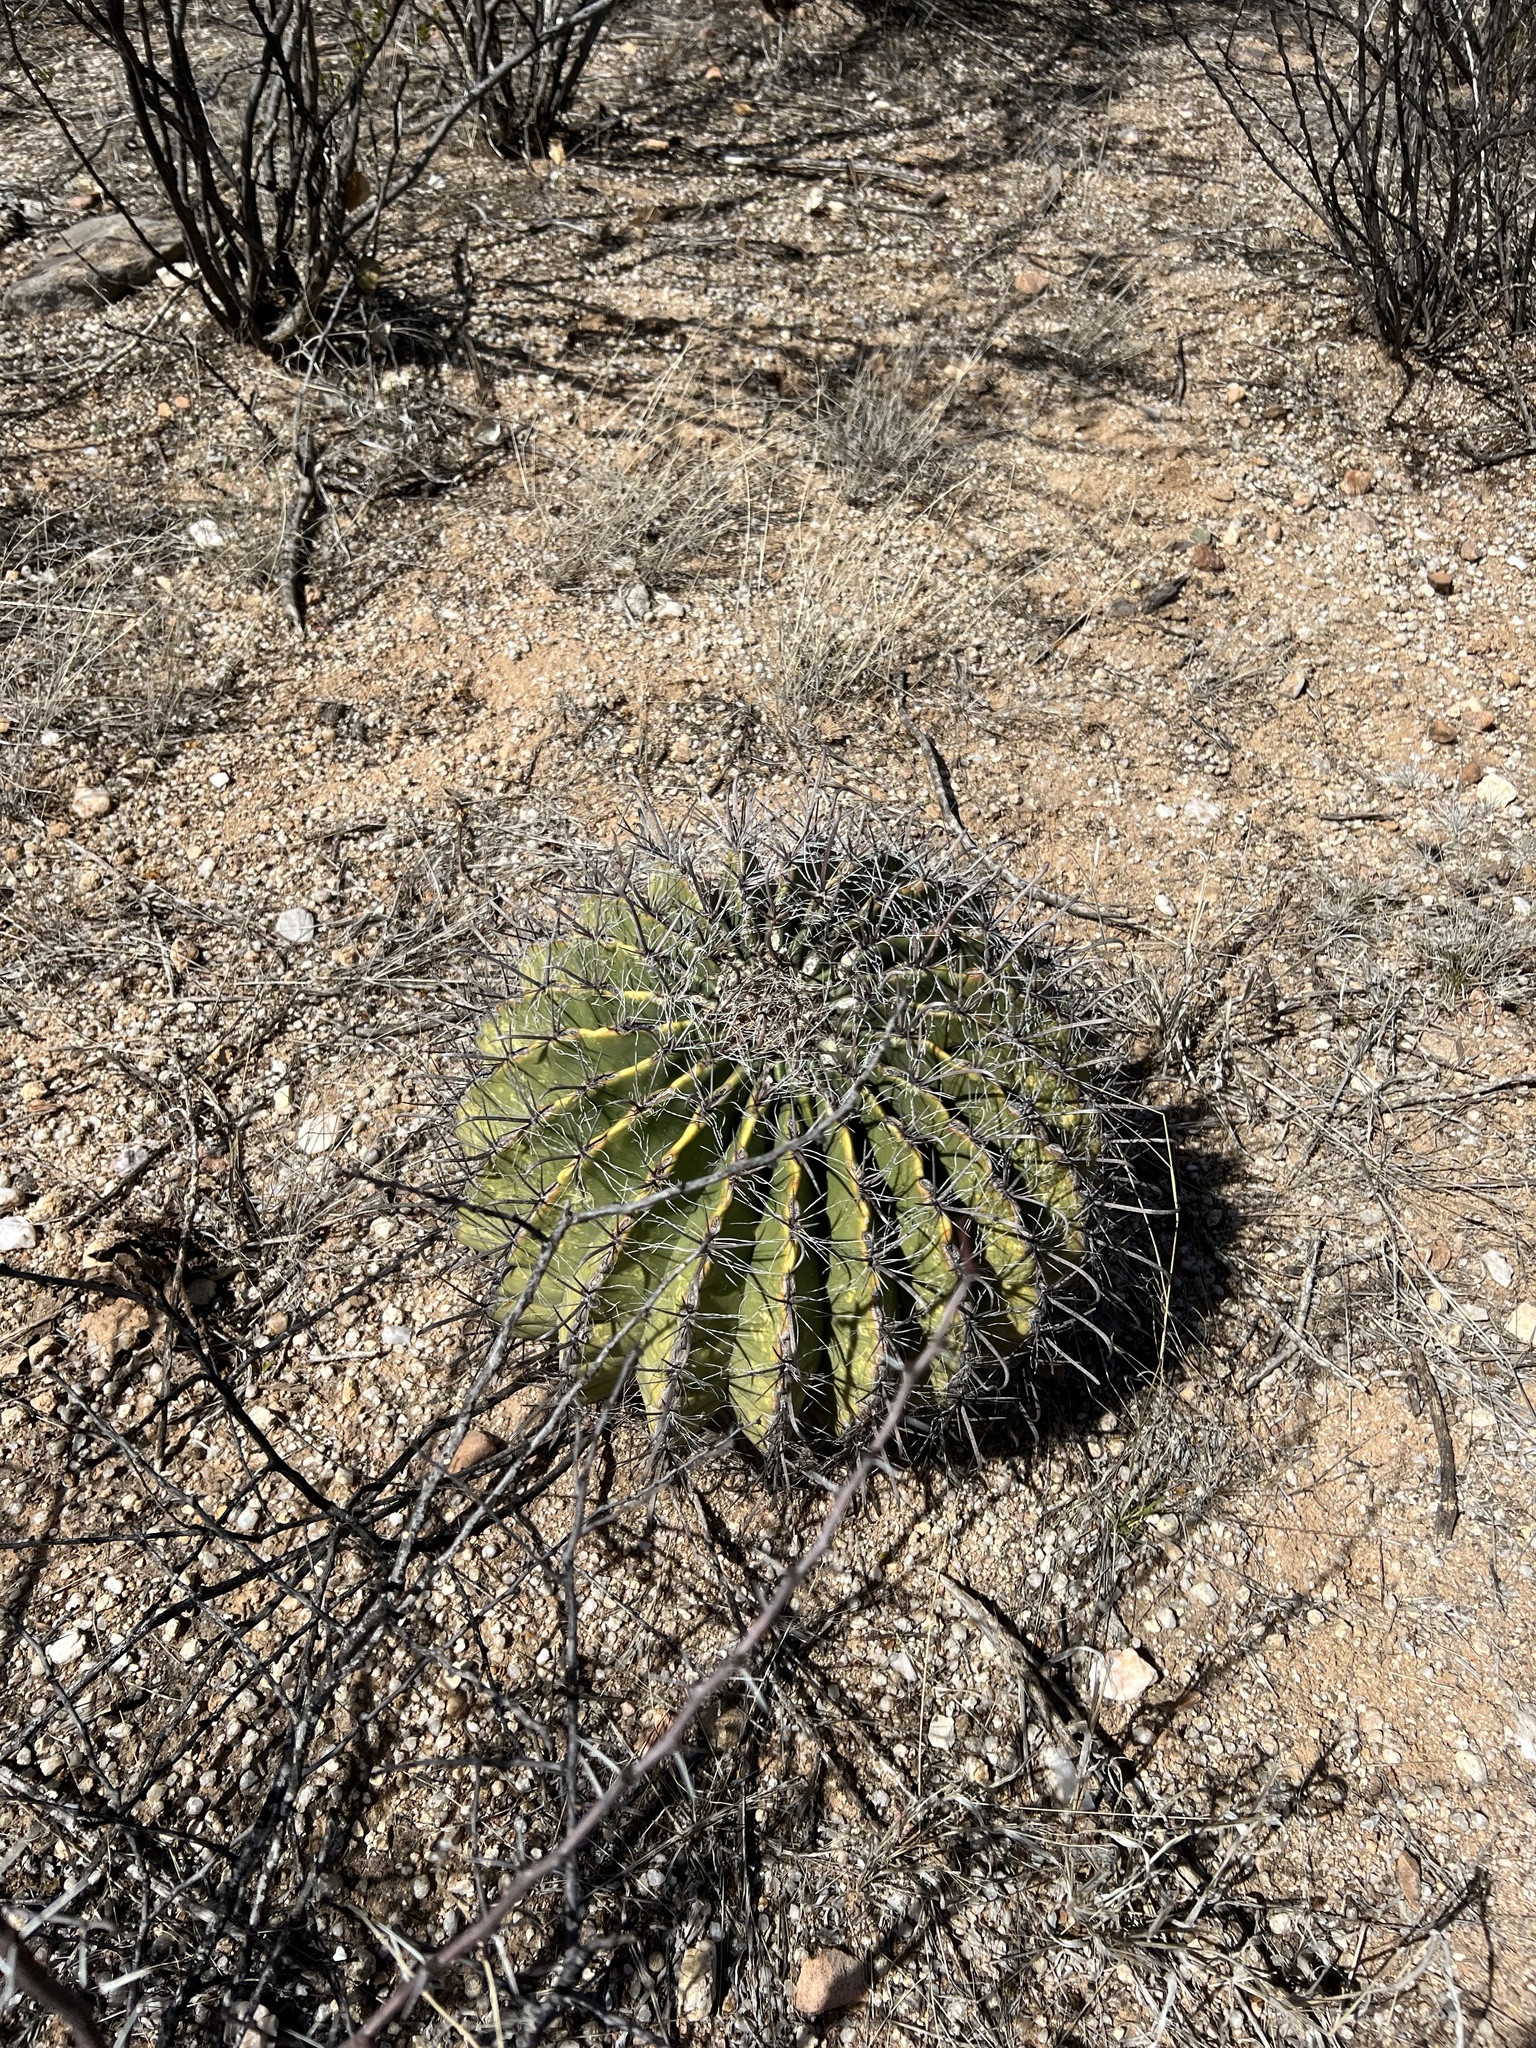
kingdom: Plantae
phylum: Tracheophyta
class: Magnoliopsida
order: Caryophyllales
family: Cactaceae
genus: Ferocactus
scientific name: Ferocactus wislizeni
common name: Candy barrel cactus
